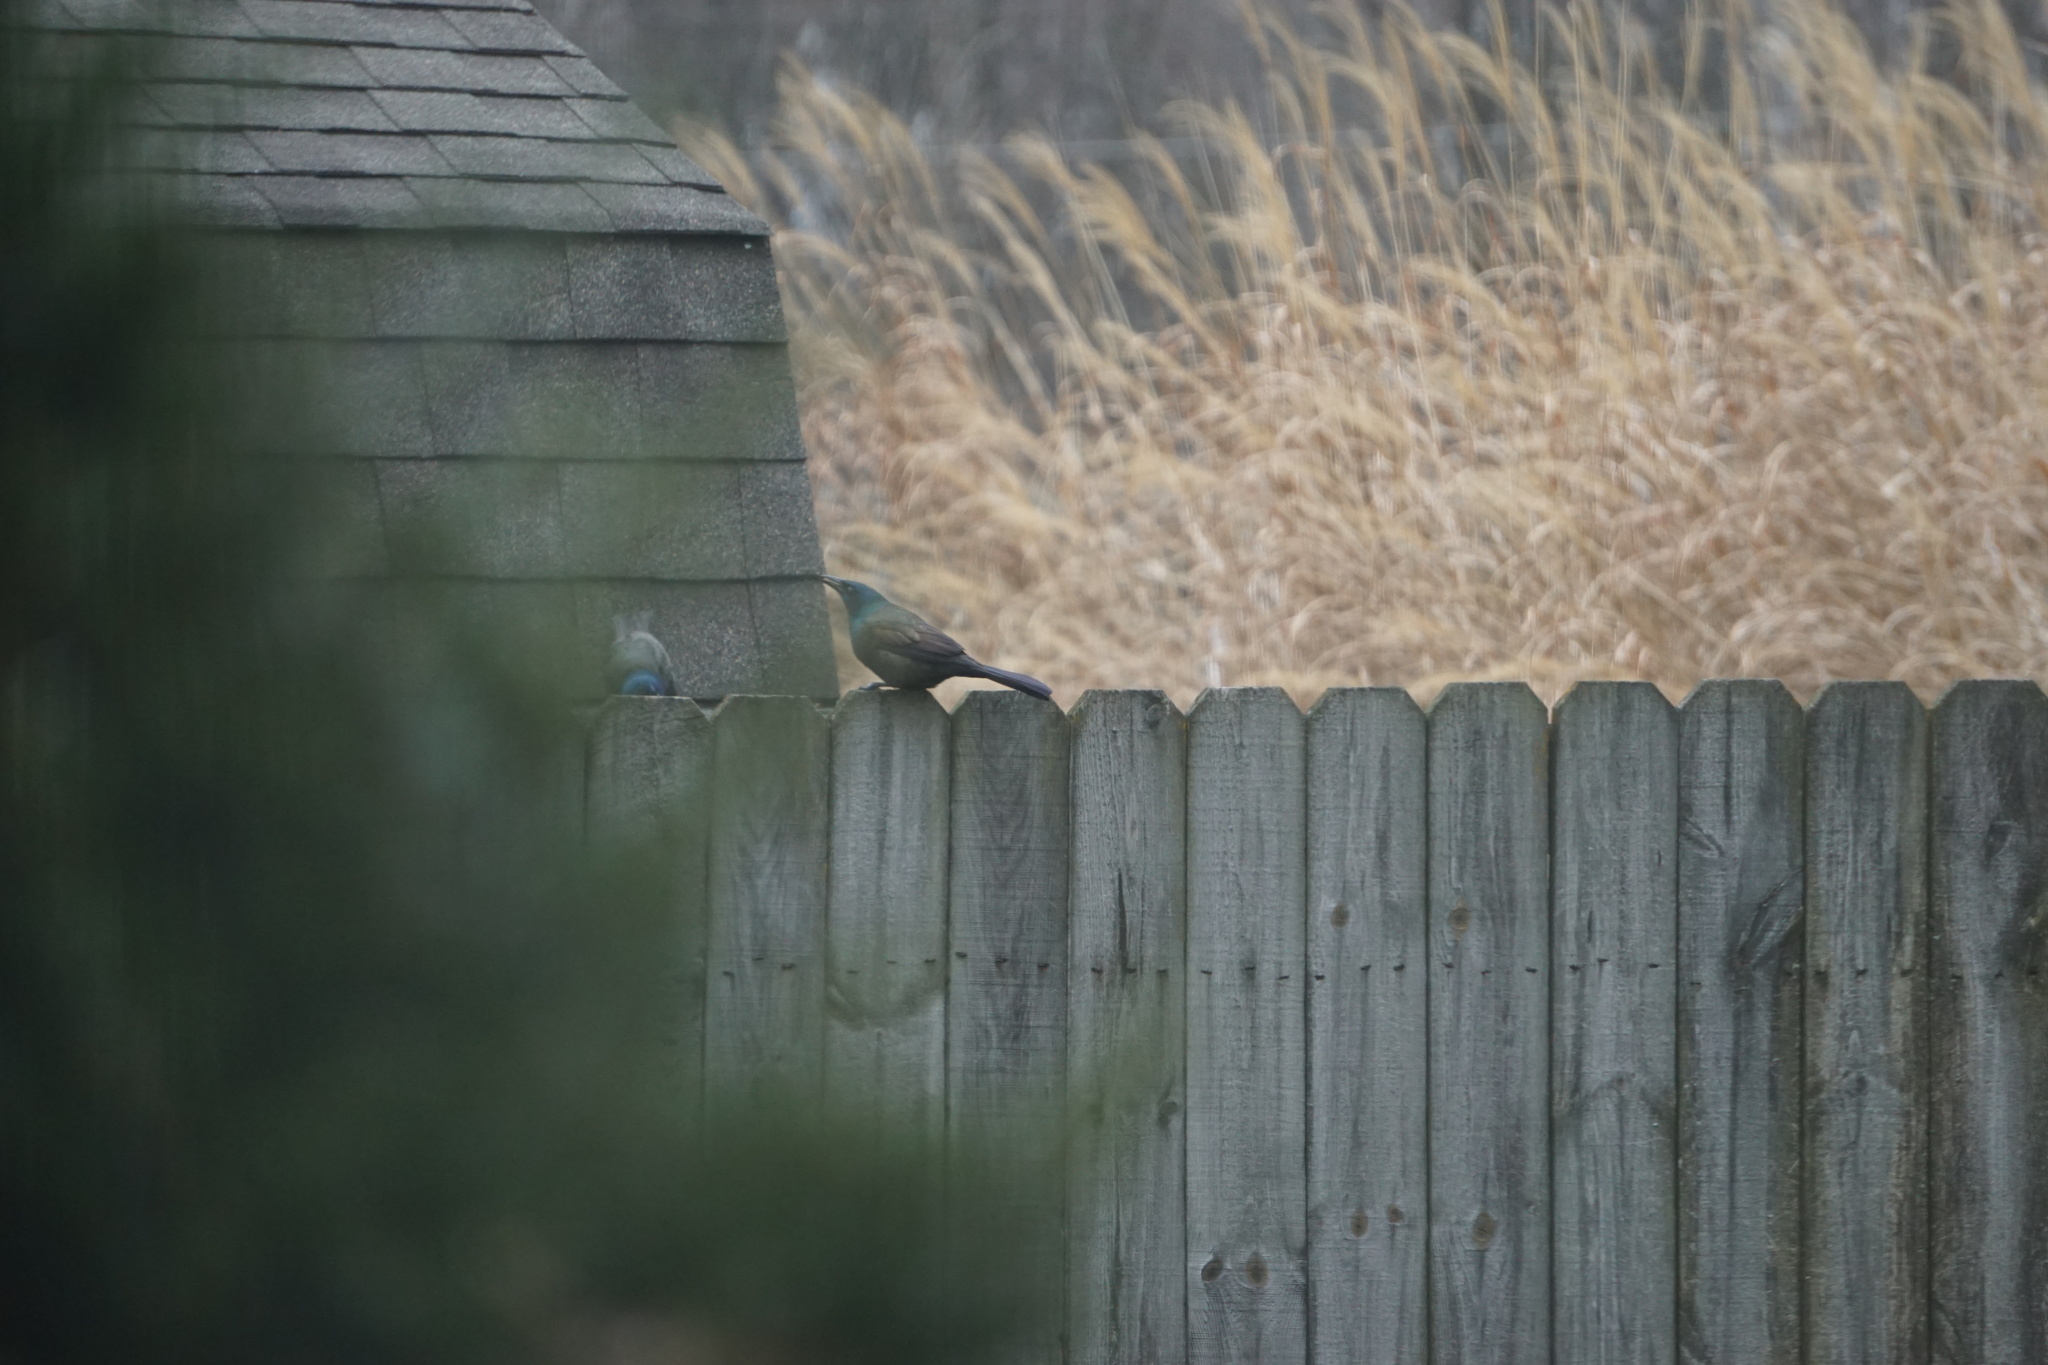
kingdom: Animalia
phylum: Chordata
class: Aves
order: Passeriformes
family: Icteridae
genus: Quiscalus
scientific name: Quiscalus quiscula
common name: Common grackle
